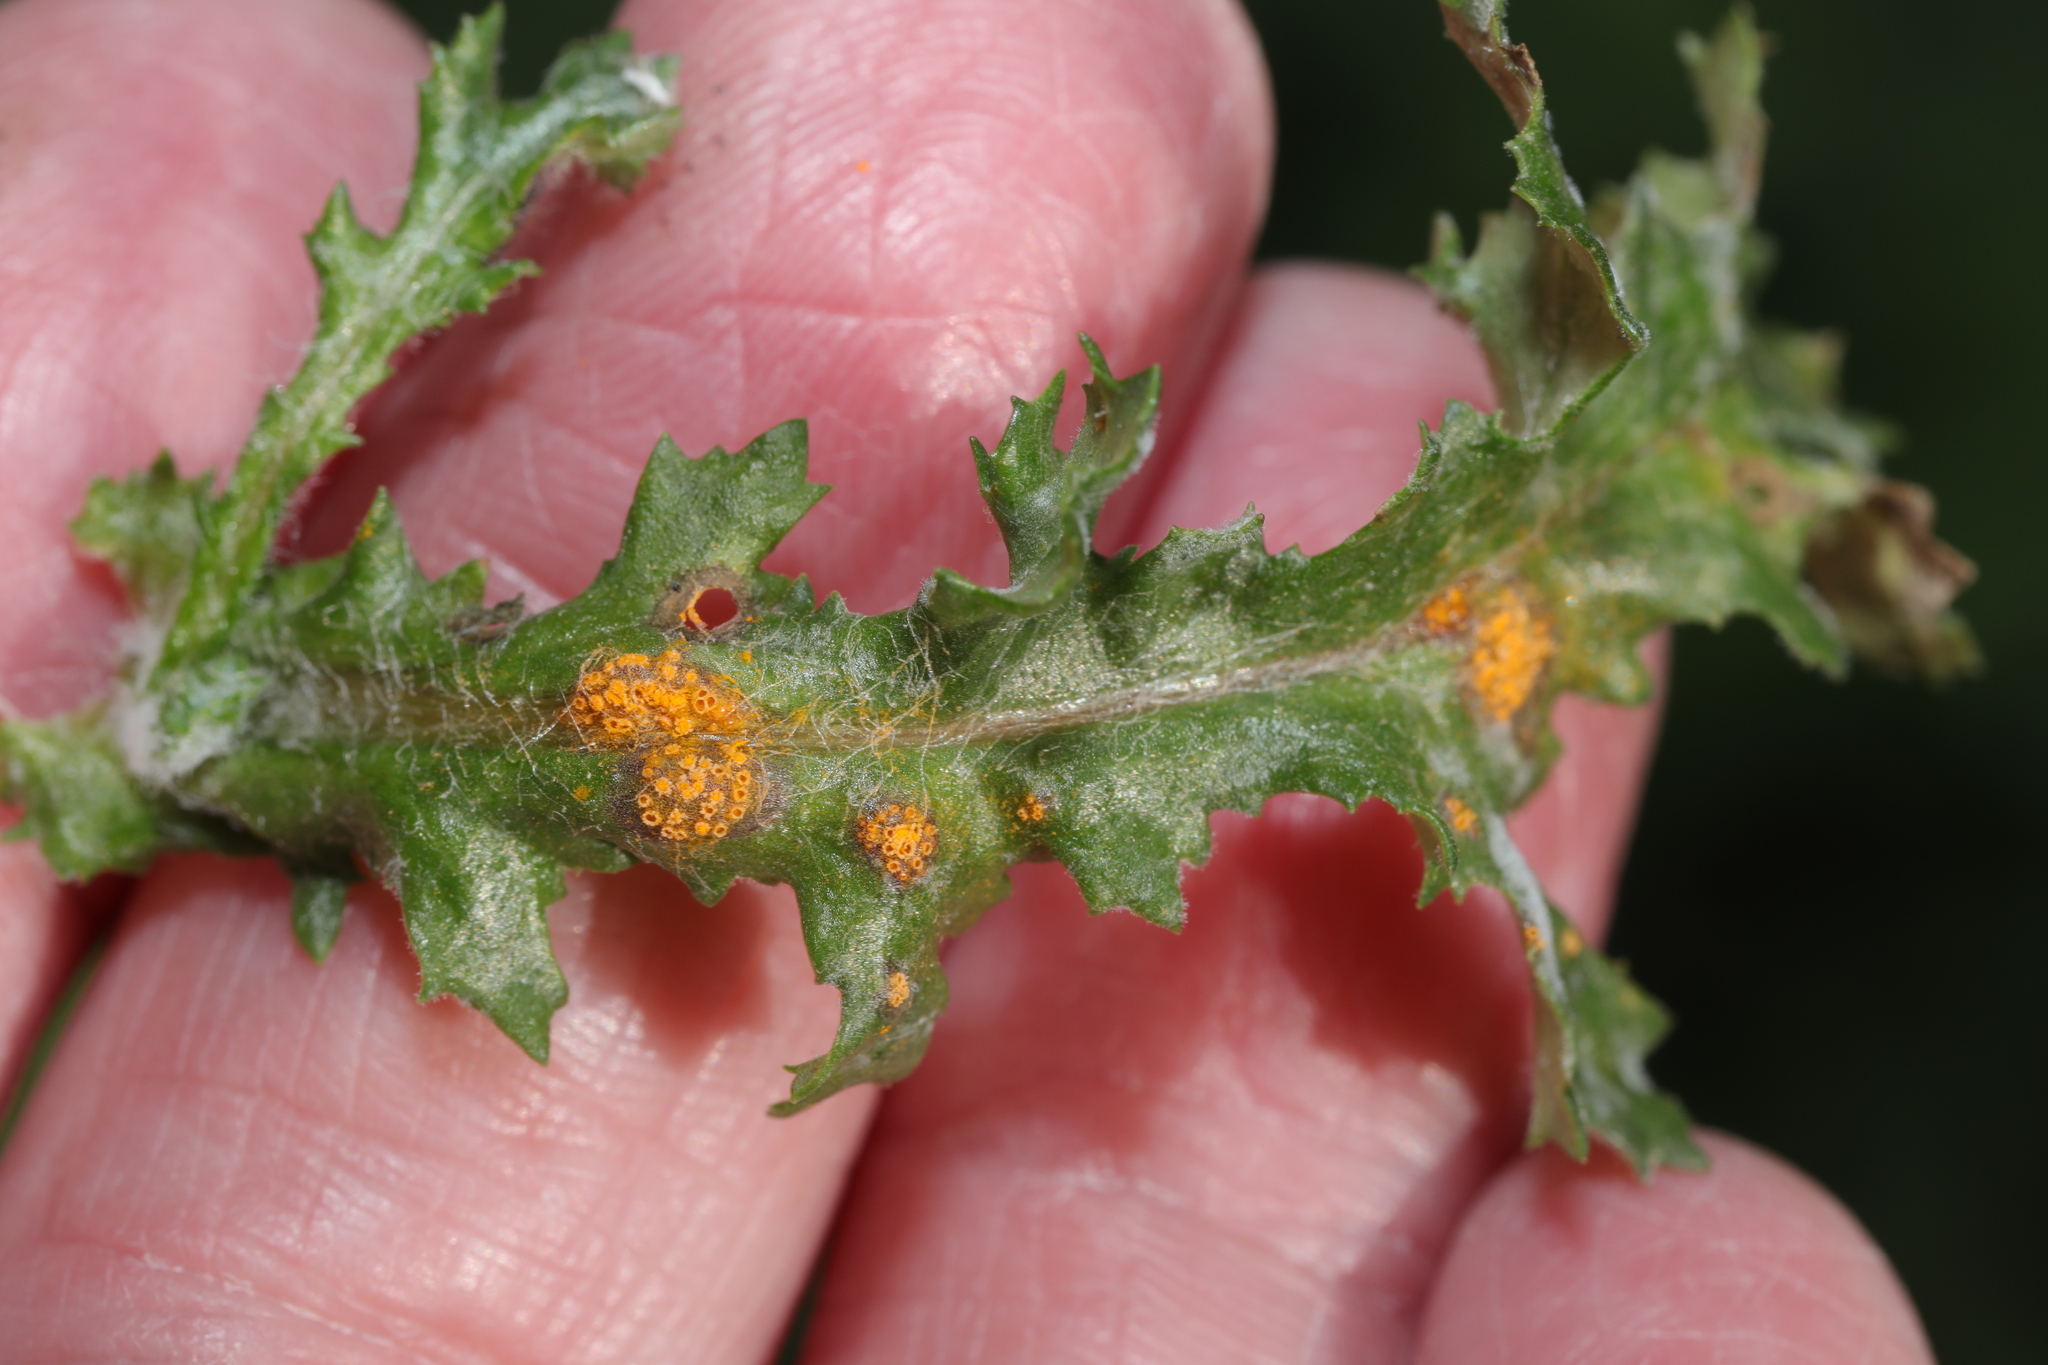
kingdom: Fungi
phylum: Basidiomycota
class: Pucciniomycetes
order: Pucciniales
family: Pucciniaceae
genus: Puccinia
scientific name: Puccinia lagenophorae
